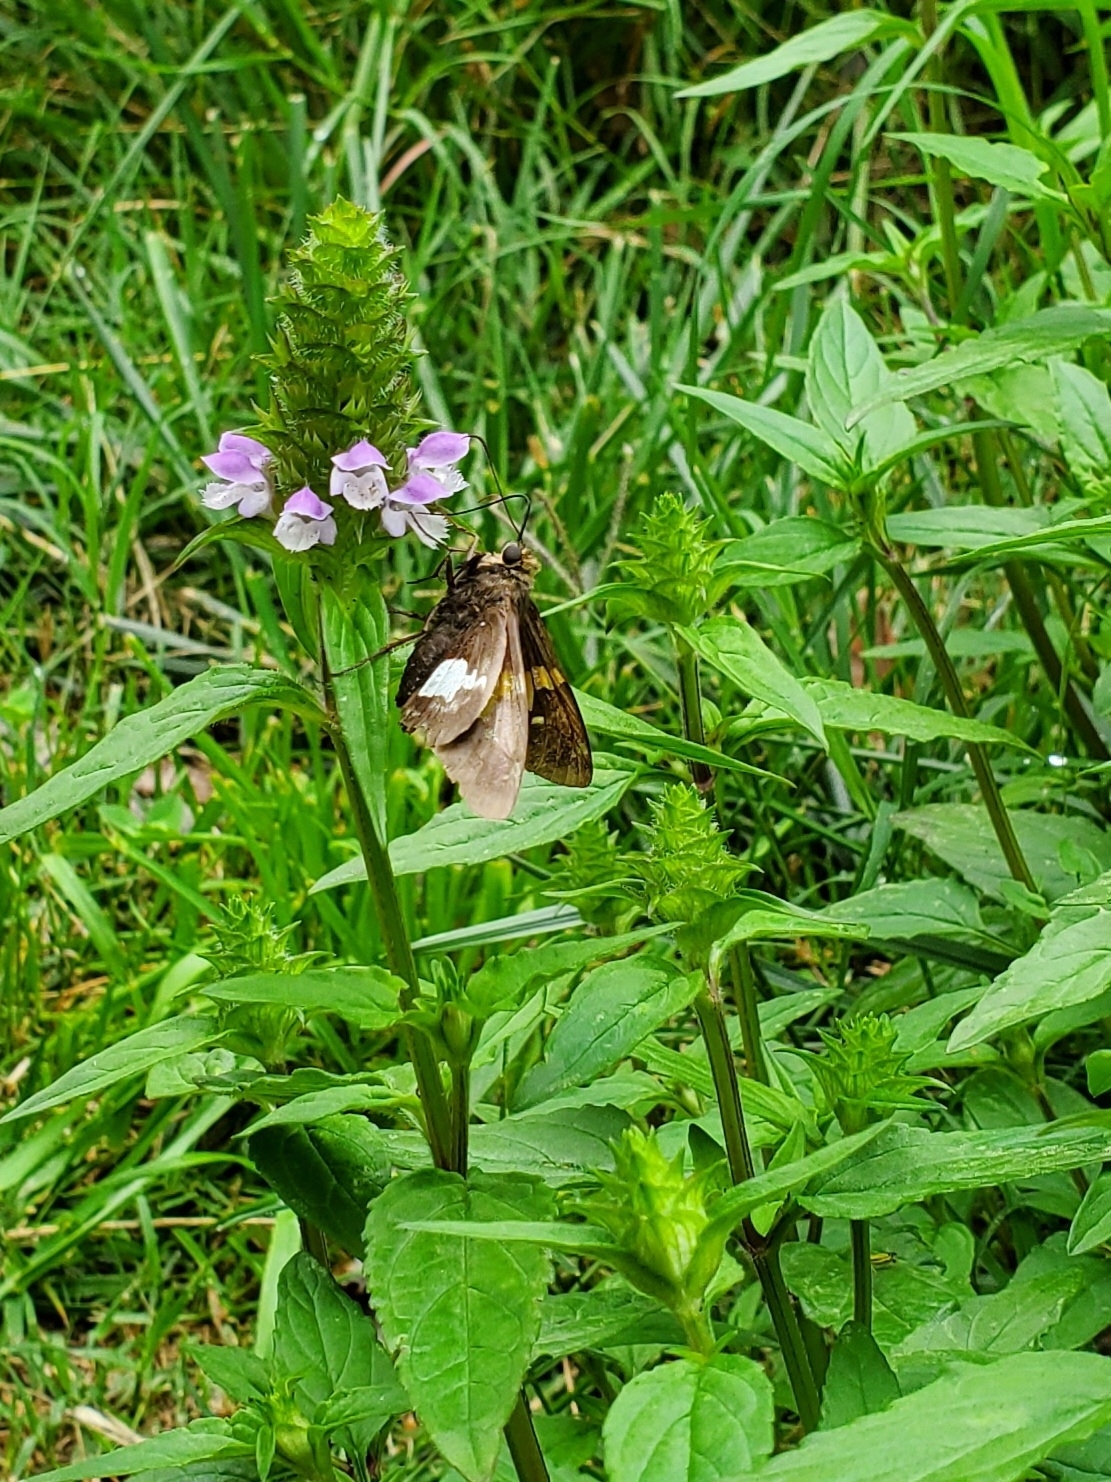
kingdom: Animalia
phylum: Arthropoda
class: Insecta
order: Lepidoptera
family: Hesperiidae
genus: Epargyreus
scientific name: Epargyreus clarus
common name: Silver-spotted skipper
